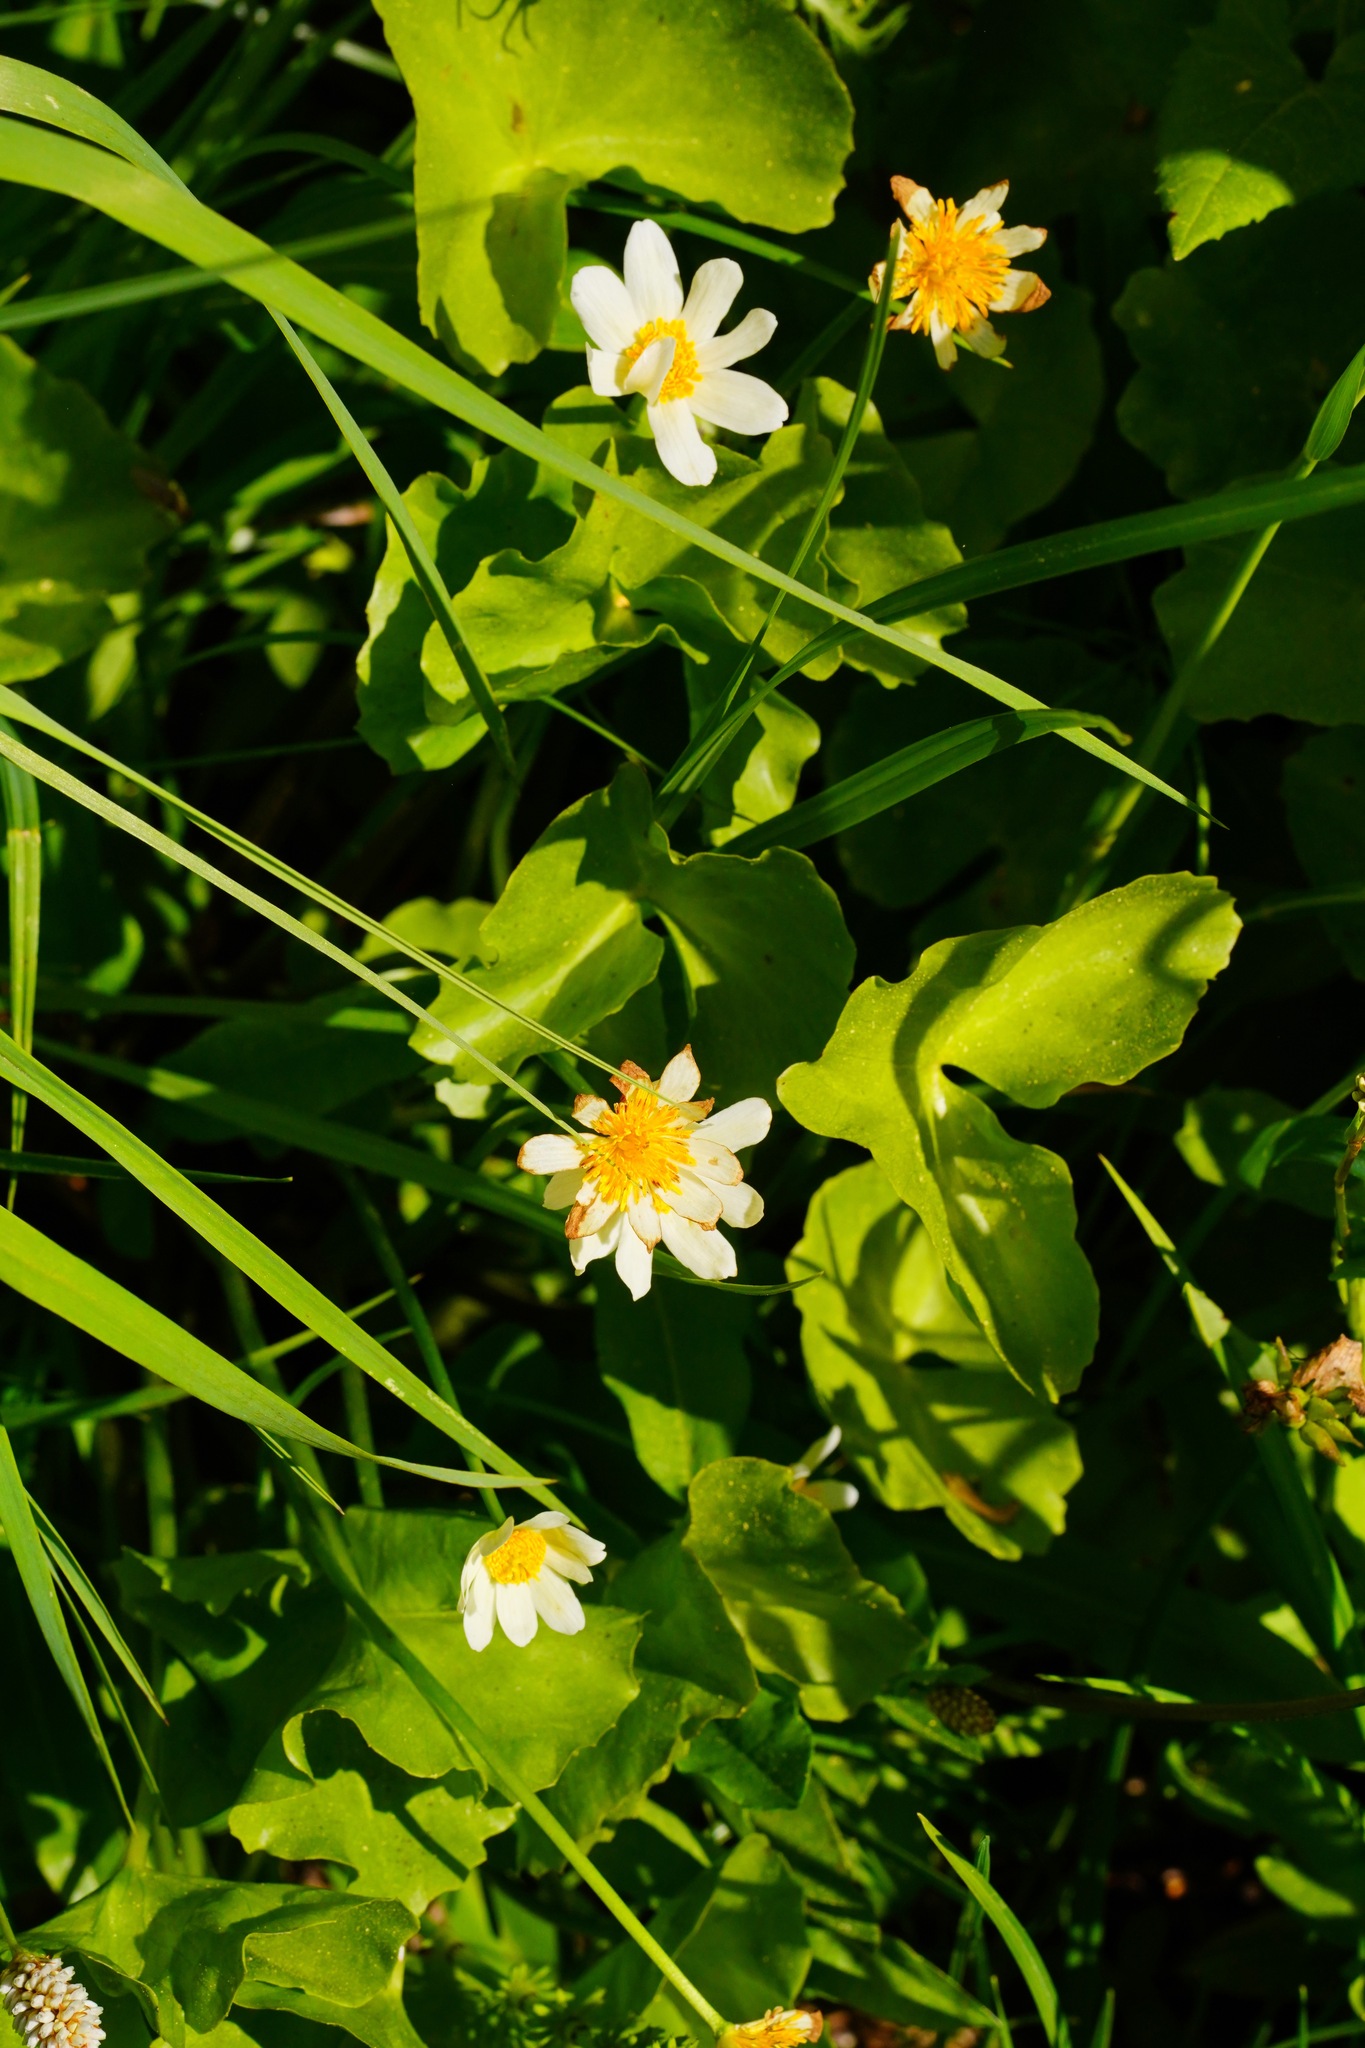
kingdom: Plantae
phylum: Tracheophyta
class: Magnoliopsida
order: Ranunculales
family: Ranunculaceae
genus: Caltha
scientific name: Caltha leptosepala
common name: Elkslip
